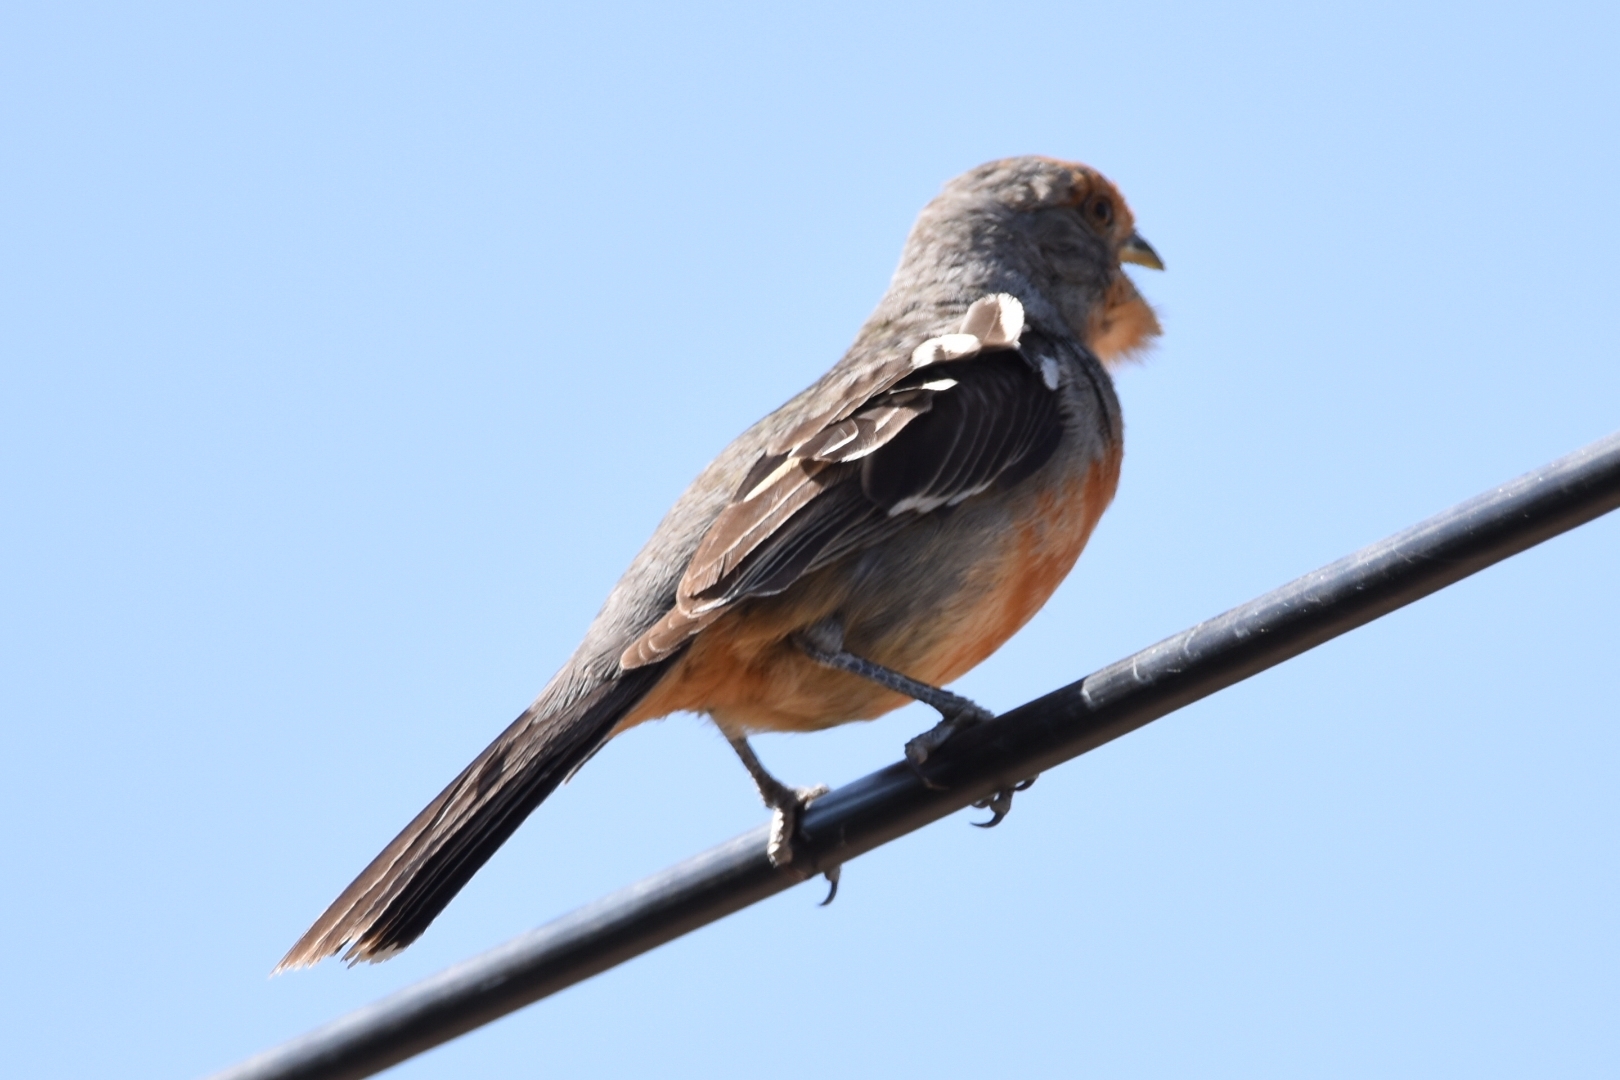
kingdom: Animalia
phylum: Chordata
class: Aves
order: Passeriformes
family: Cotingidae
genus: Phytotoma
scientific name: Phytotoma rutila
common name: White-tipped plantcutter
